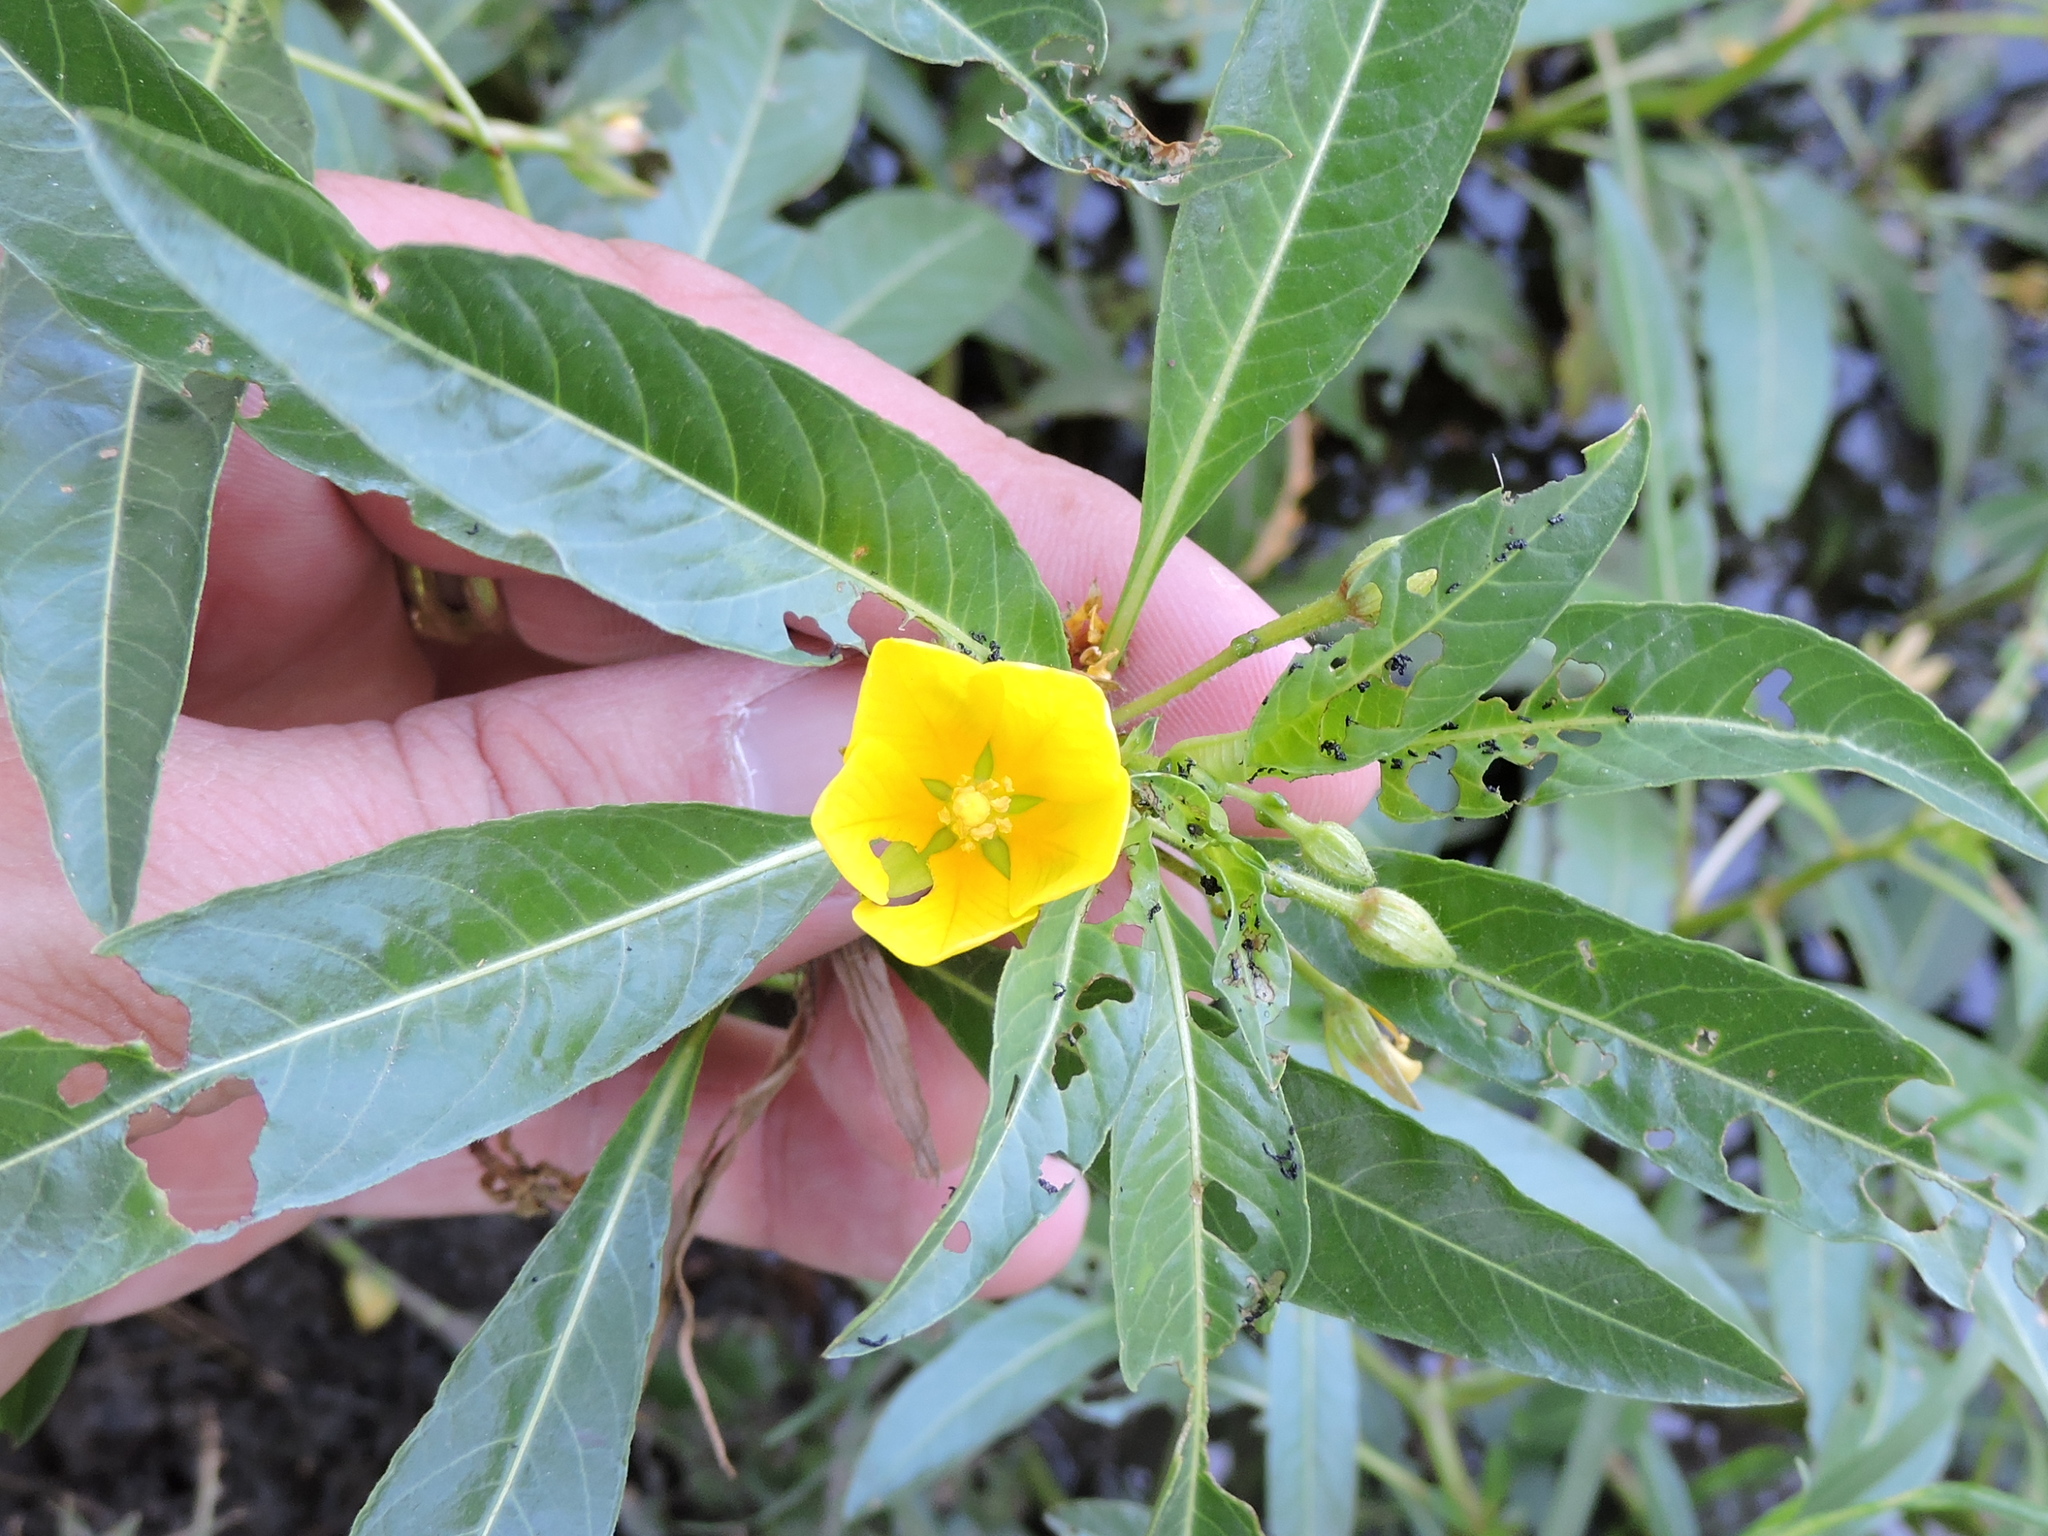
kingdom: Plantae
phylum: Tracheophyta
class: Magnoliopsida
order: Myrtales
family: Onagraceae
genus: Ludwigia
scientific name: Ludwigia peploides
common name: Floating primrose-willow
